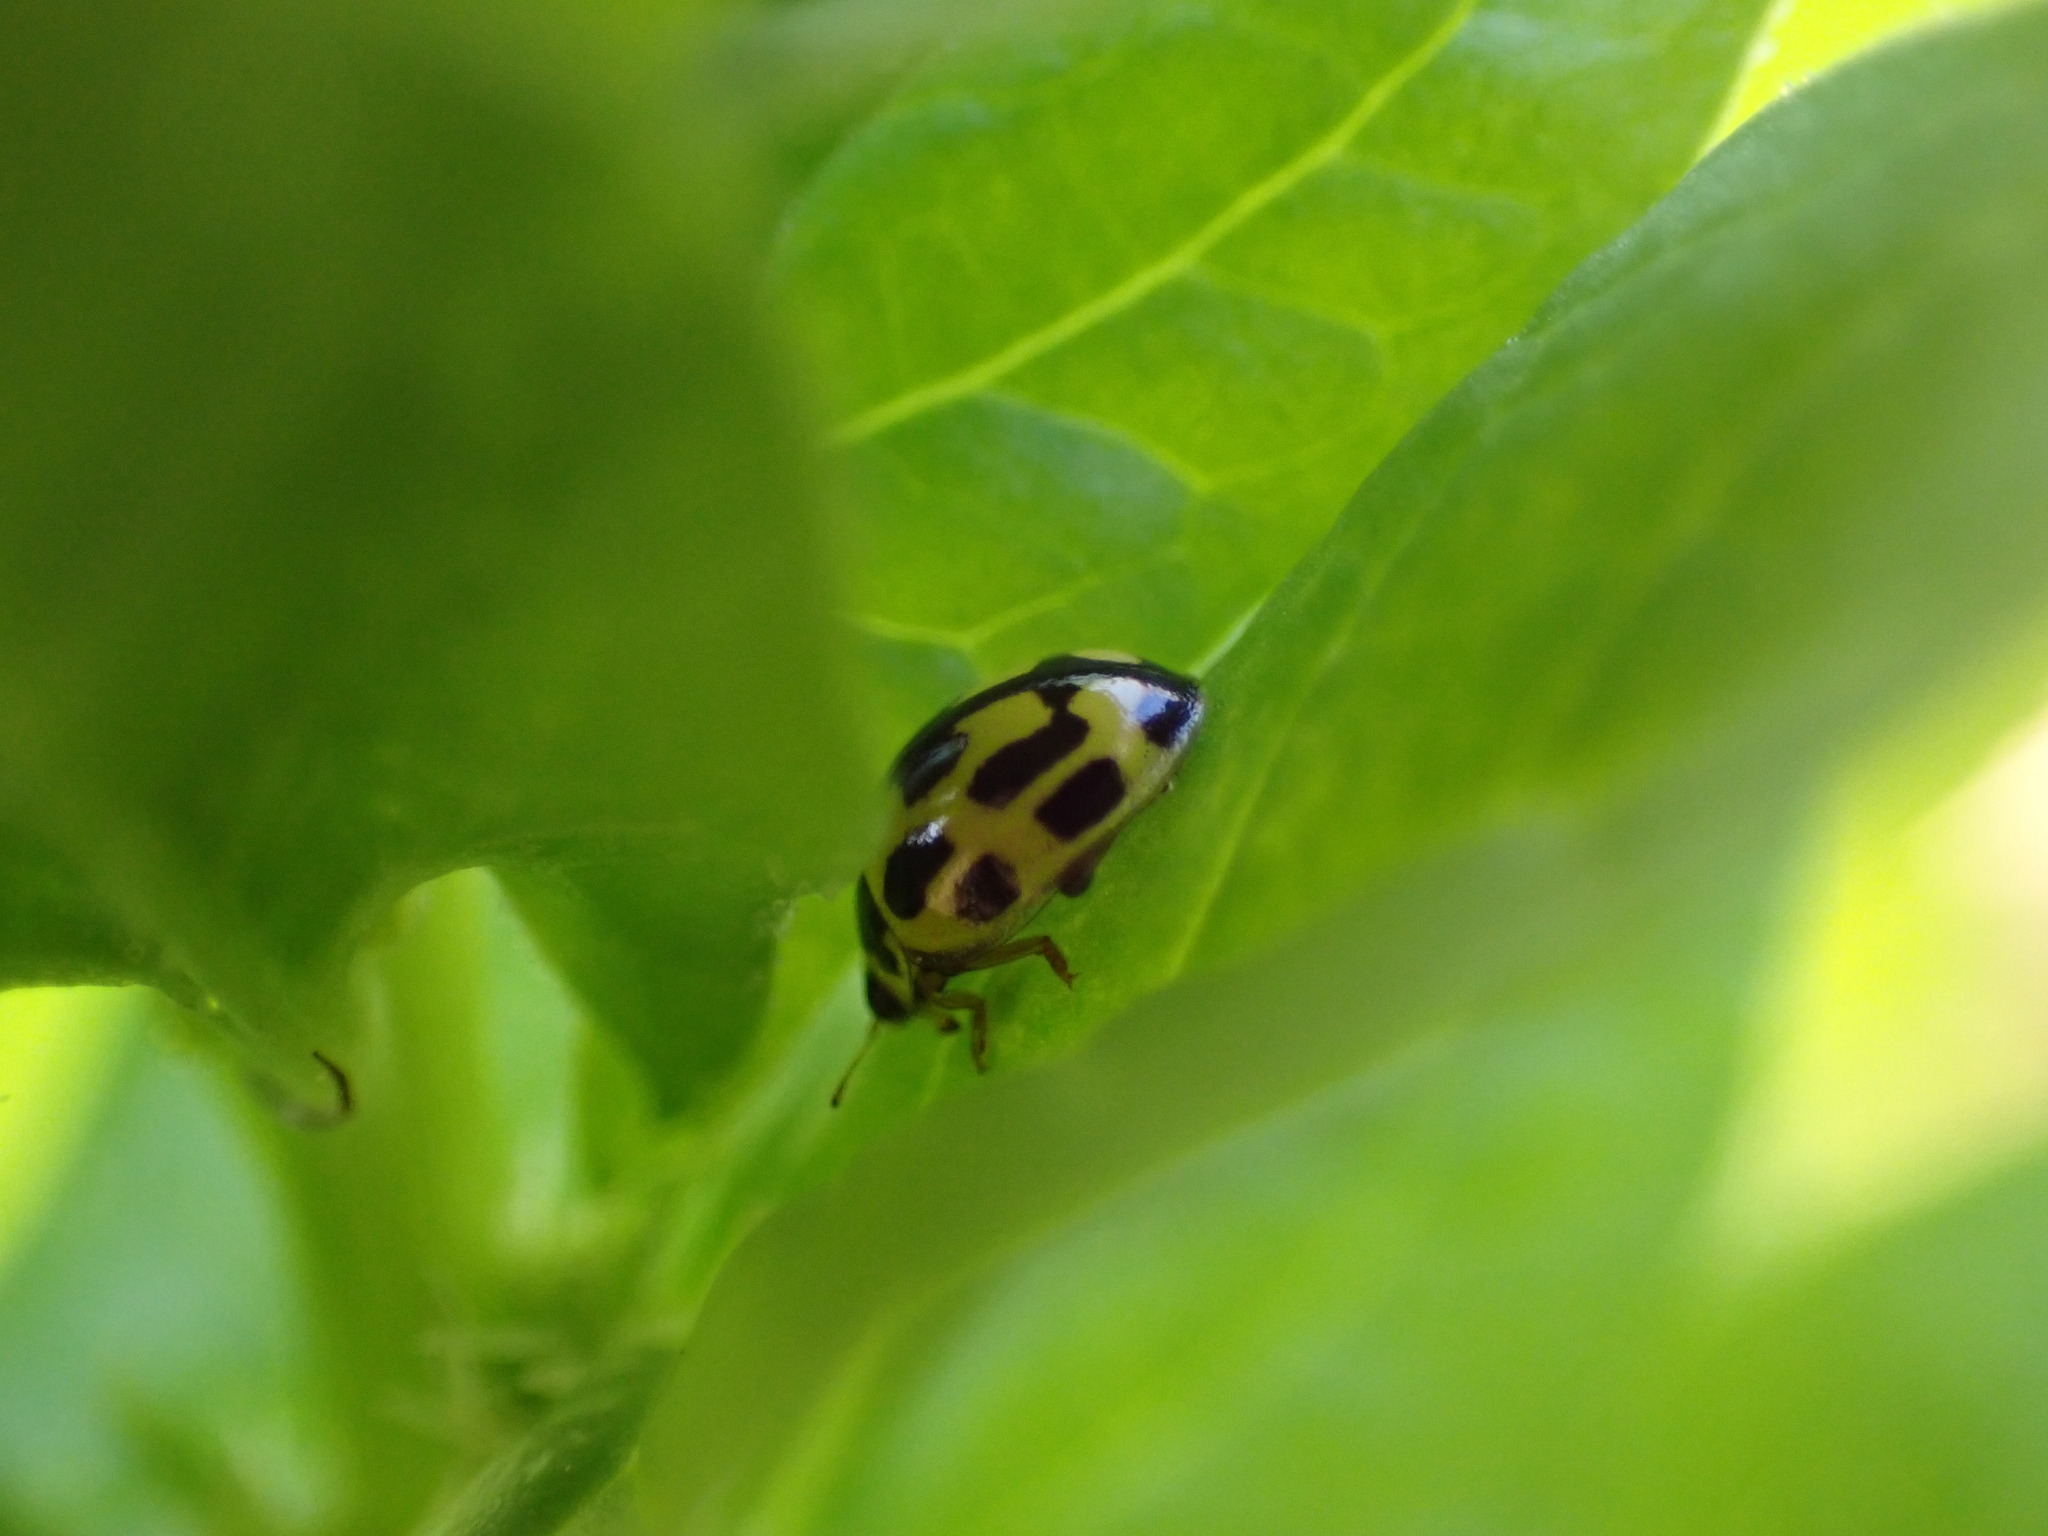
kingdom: Animalia
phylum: Arthropoda
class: Insecta
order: Coleoptera
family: Coccinellidae
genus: Propylaea
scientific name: Propylaea quatuordecimpunctata
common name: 14-spotted ladybird beetle
